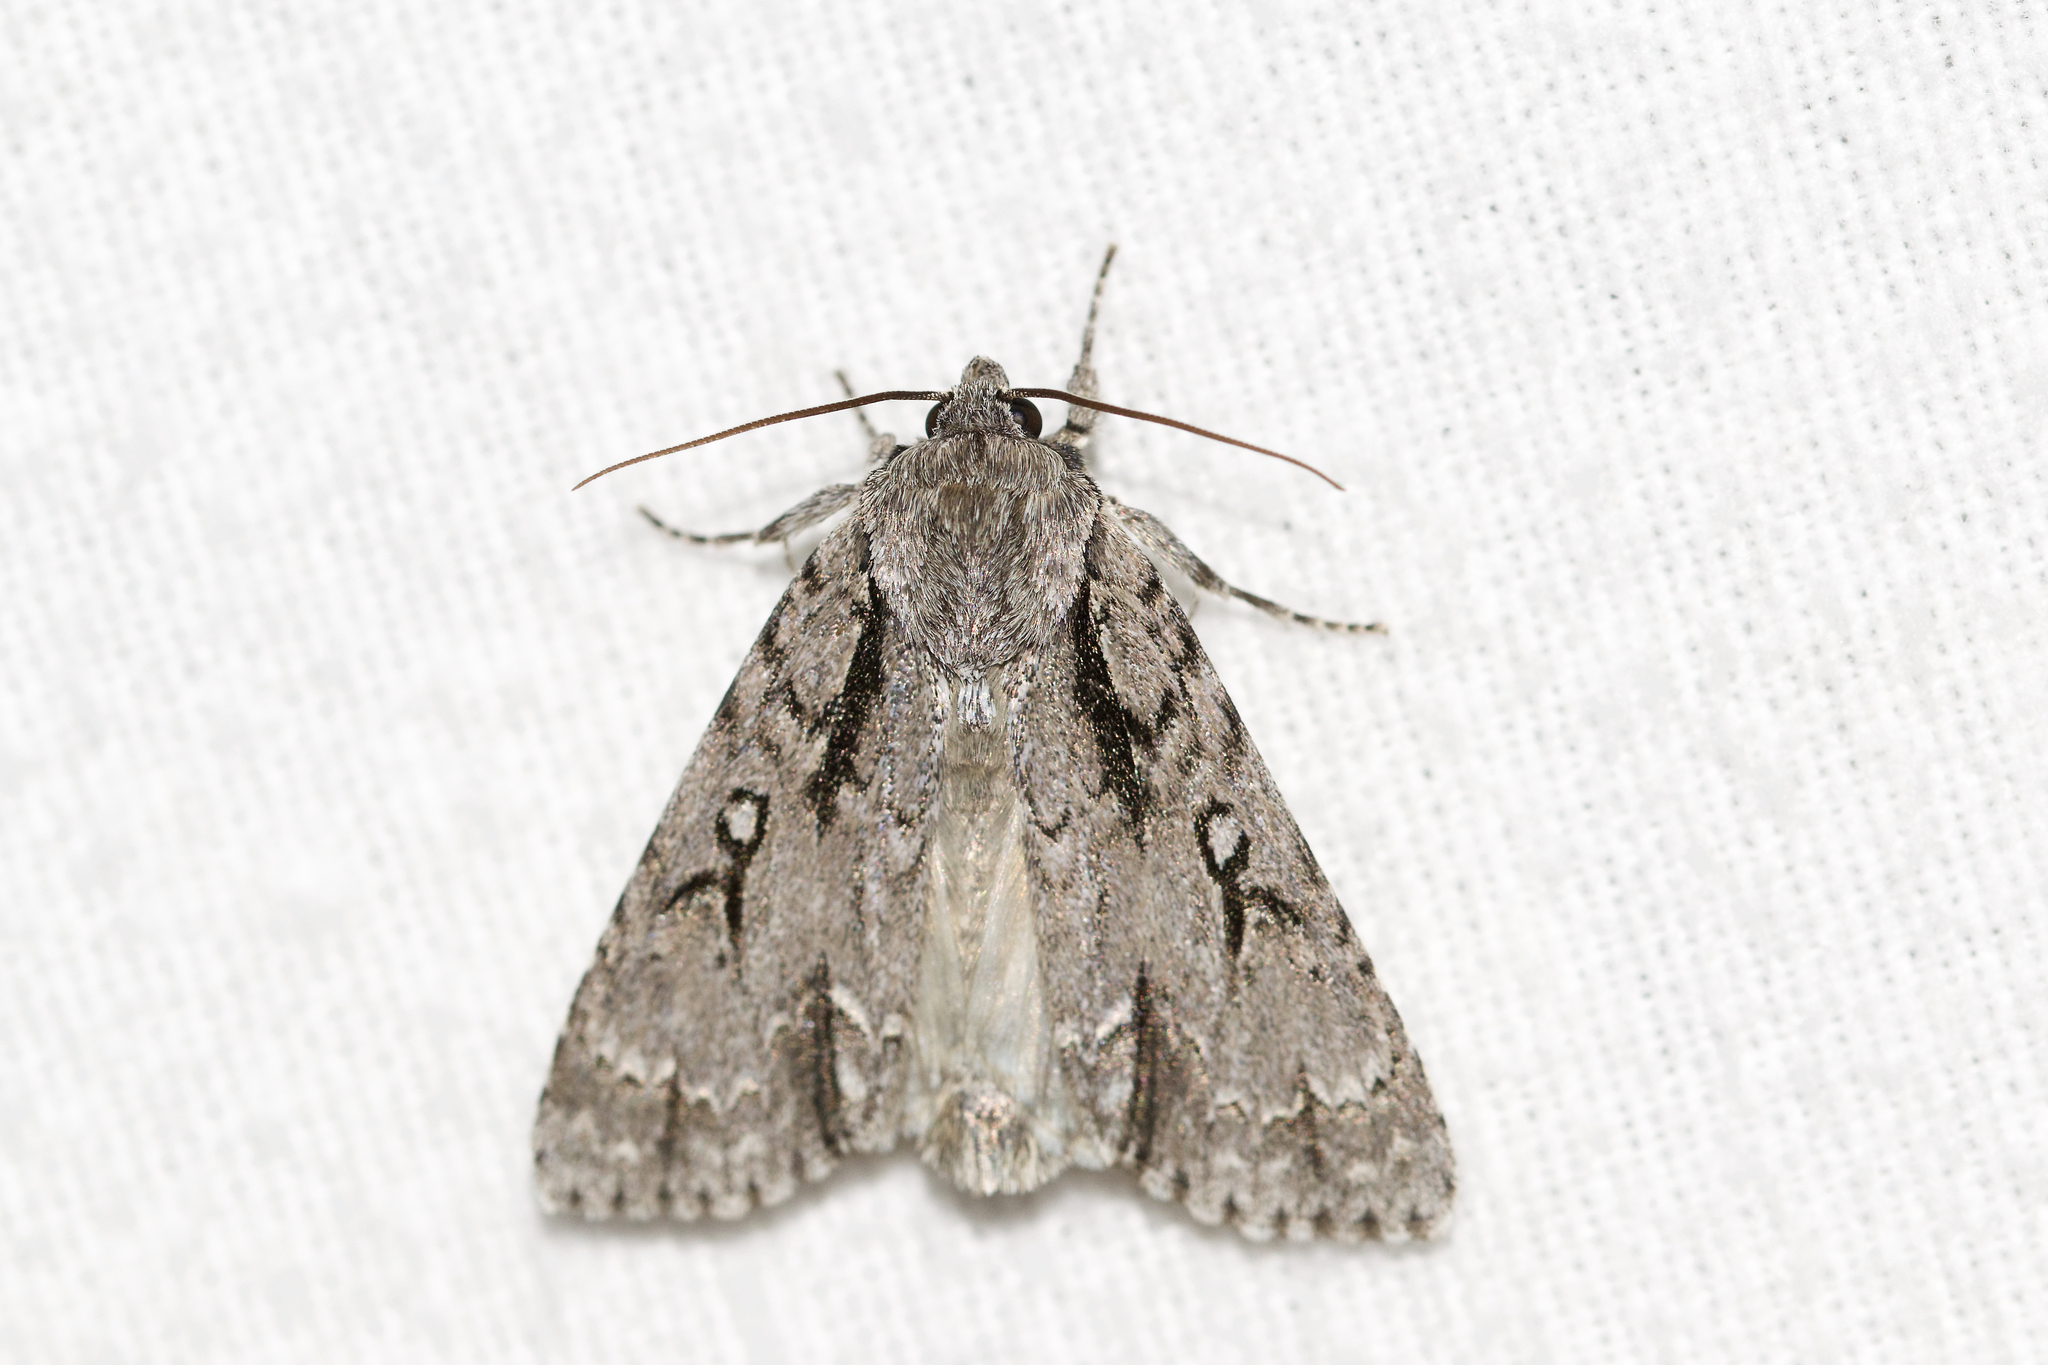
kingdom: Animalia
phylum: Arthropoda
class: Insecta
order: Lepidoptera
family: Noctuidae
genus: Acronicta
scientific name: Acronicta hasta
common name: Cherry dagger
